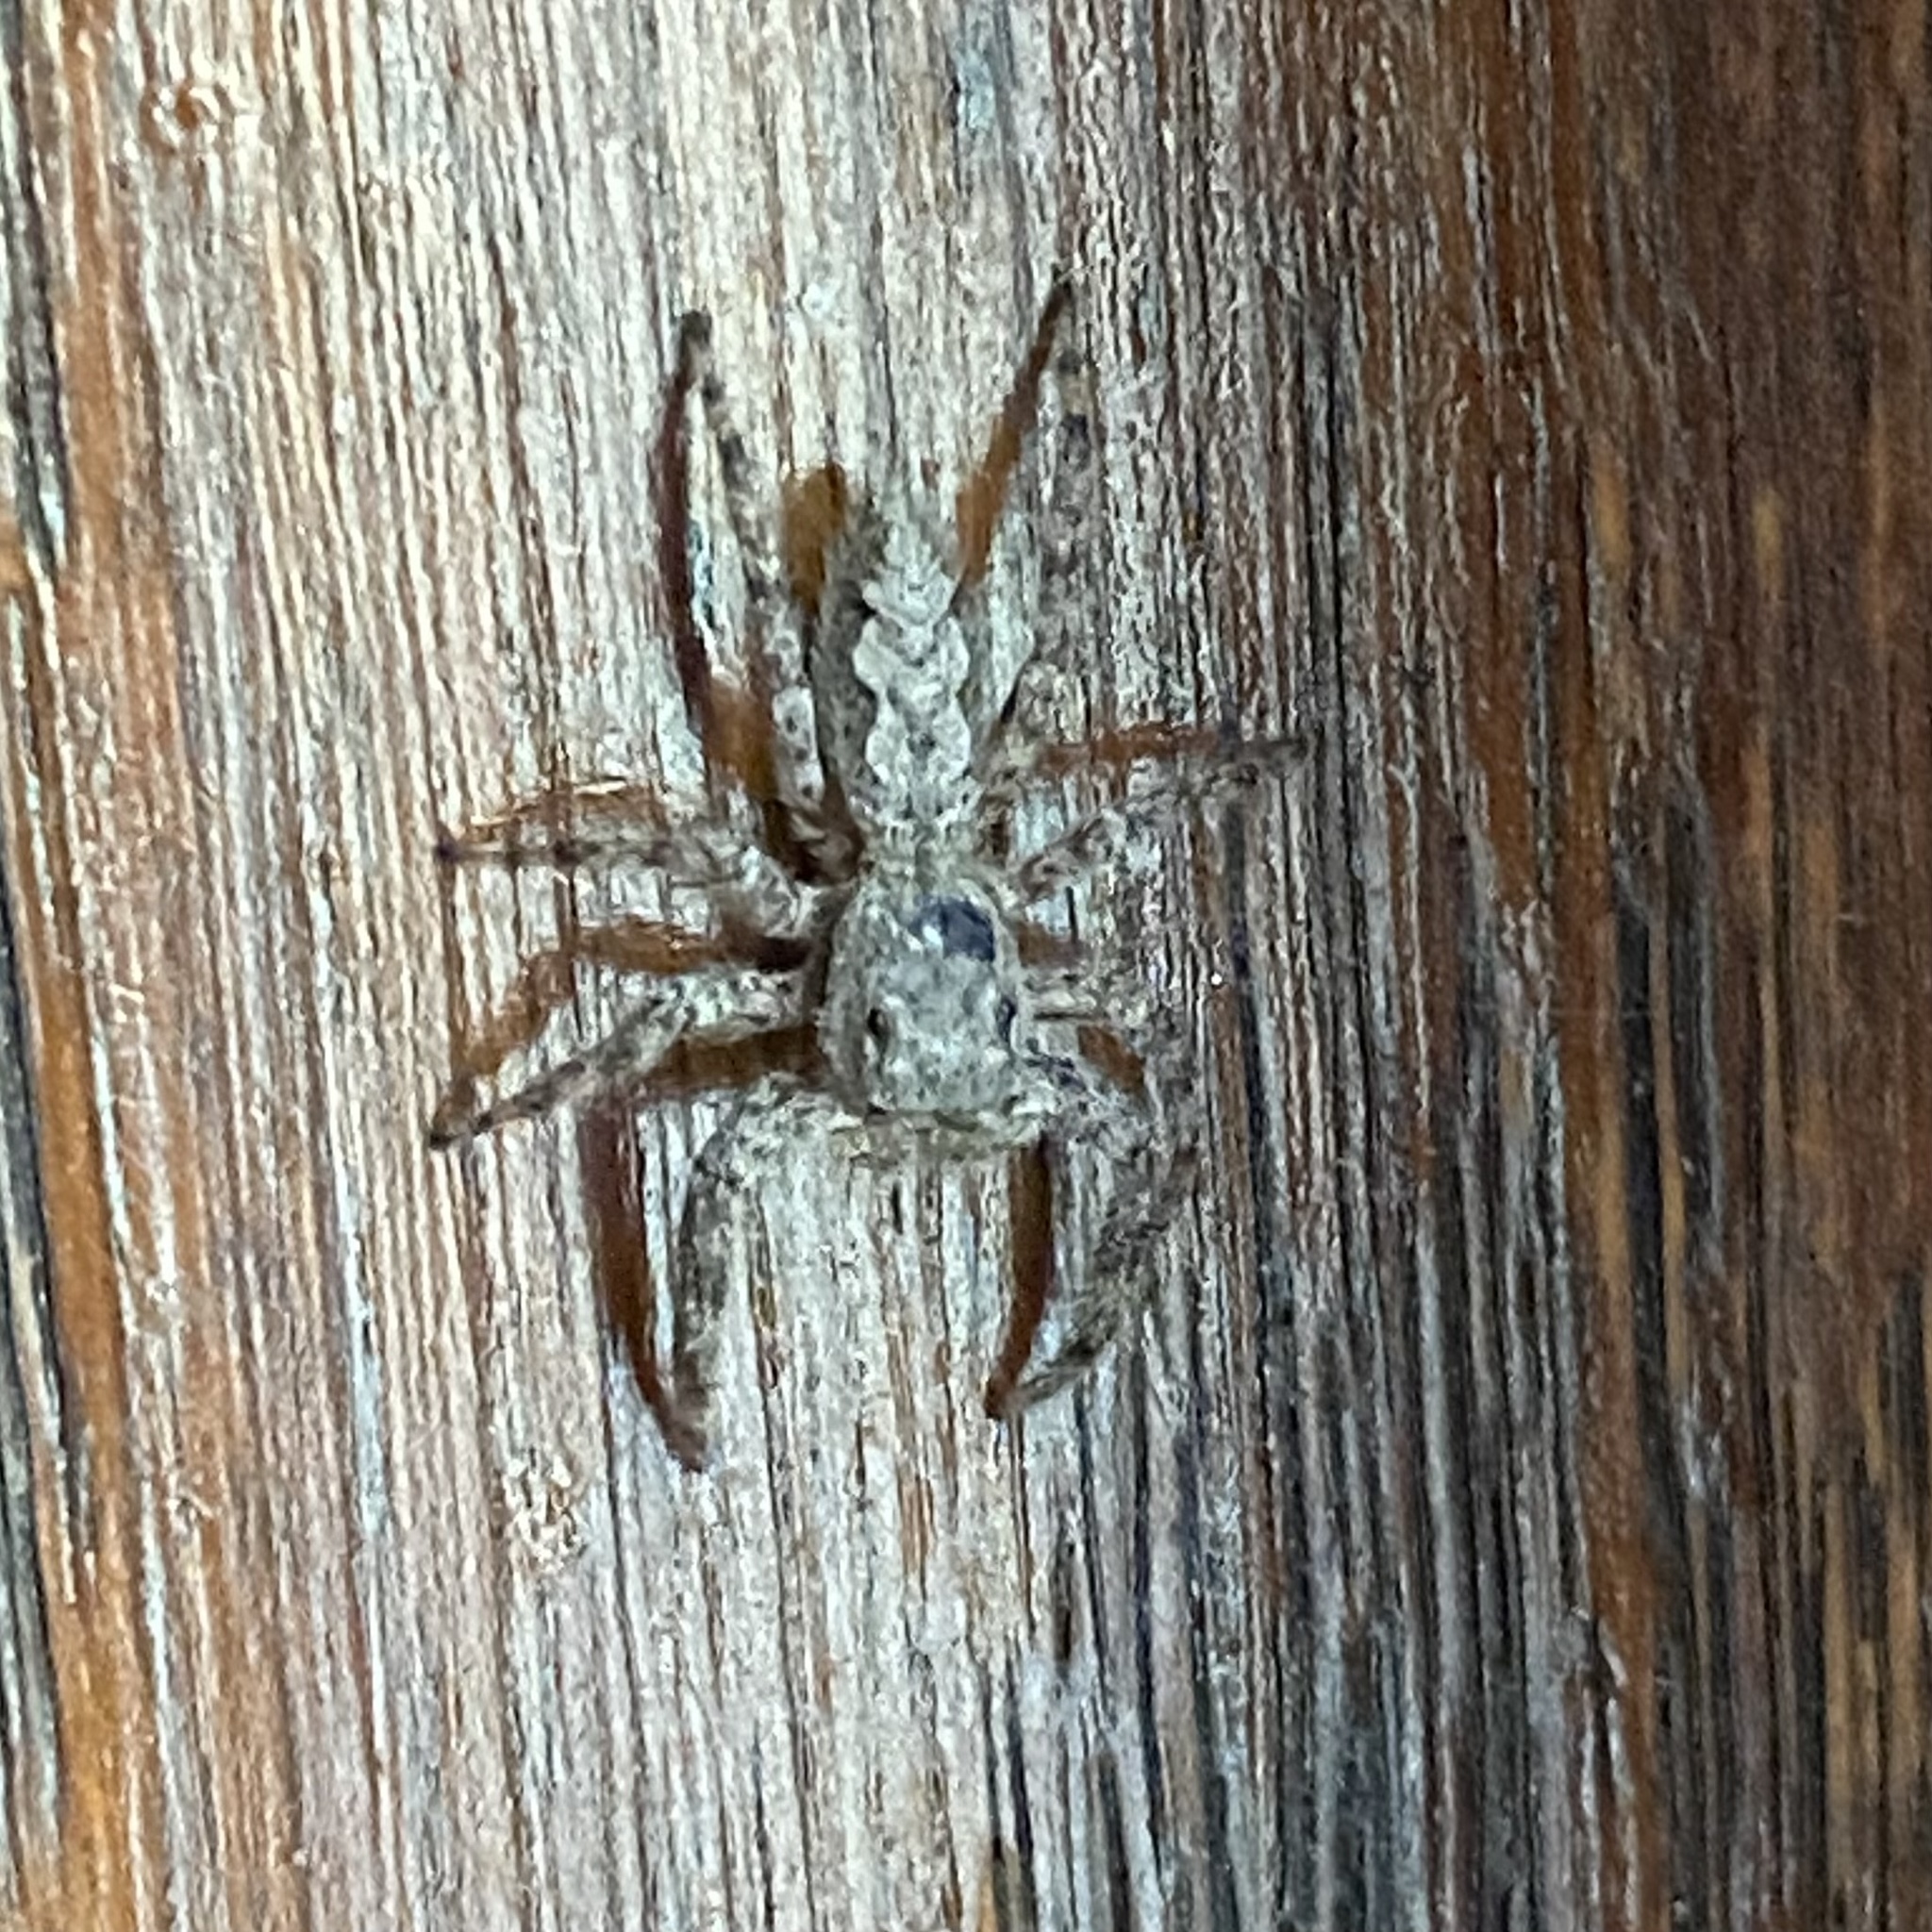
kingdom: Animalia
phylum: Arthropoda
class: Arachnida
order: Araneae
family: Salticidae
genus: Platycryptus
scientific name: Platycryptus undatus
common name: Tan jumping spider
